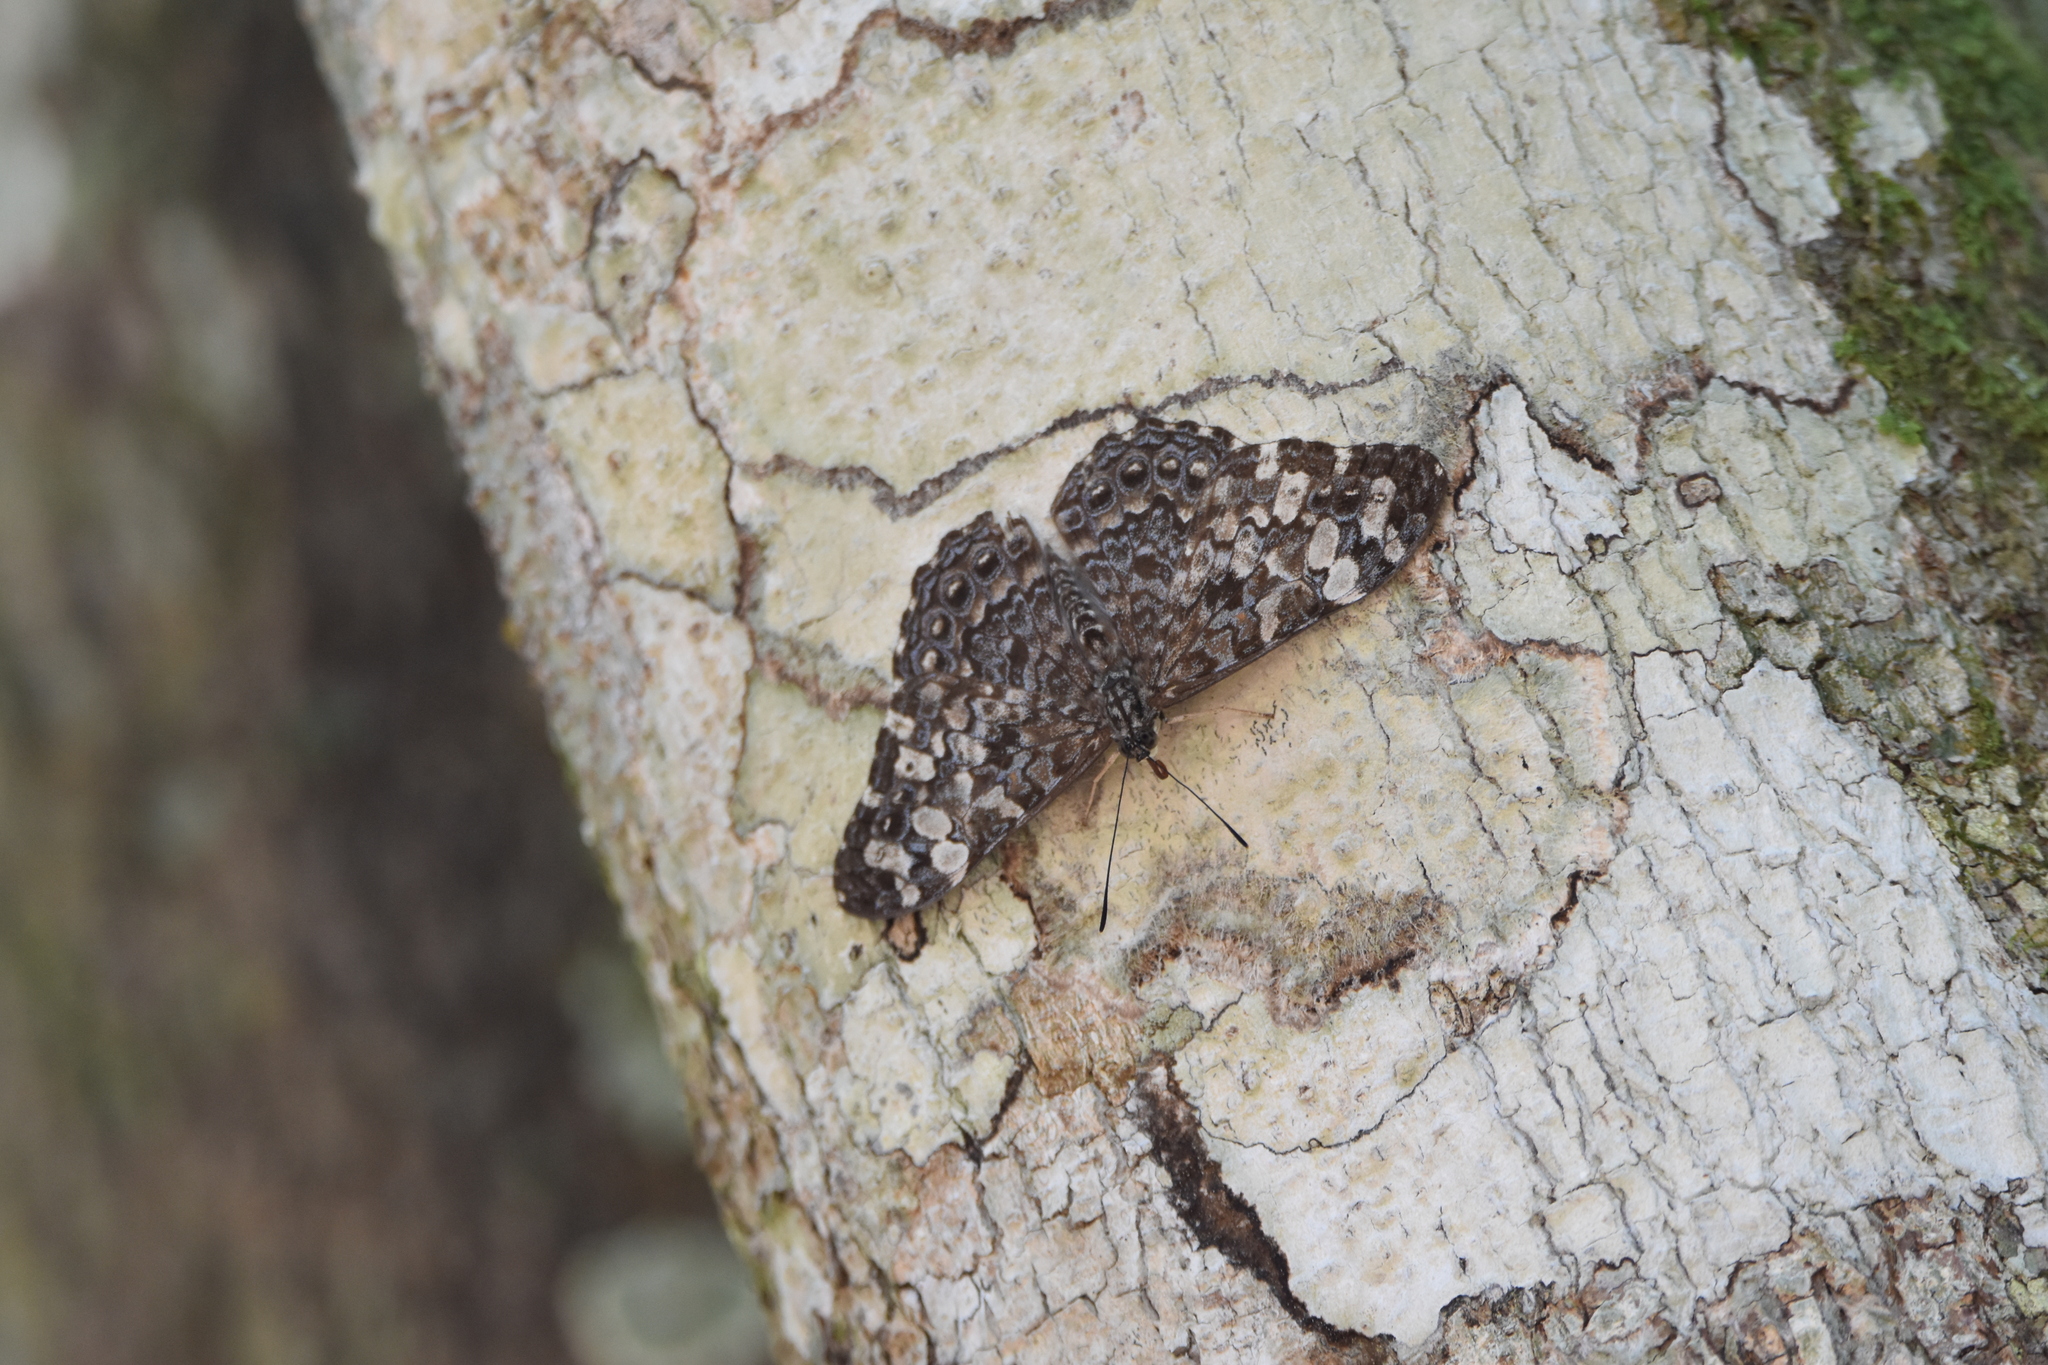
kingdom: Animalia
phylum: Arthropoda
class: Insecta
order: Lepidoptera
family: Nymphalidae
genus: Hamadryas
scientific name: Hamadryas epinome
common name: Epinome cracker
